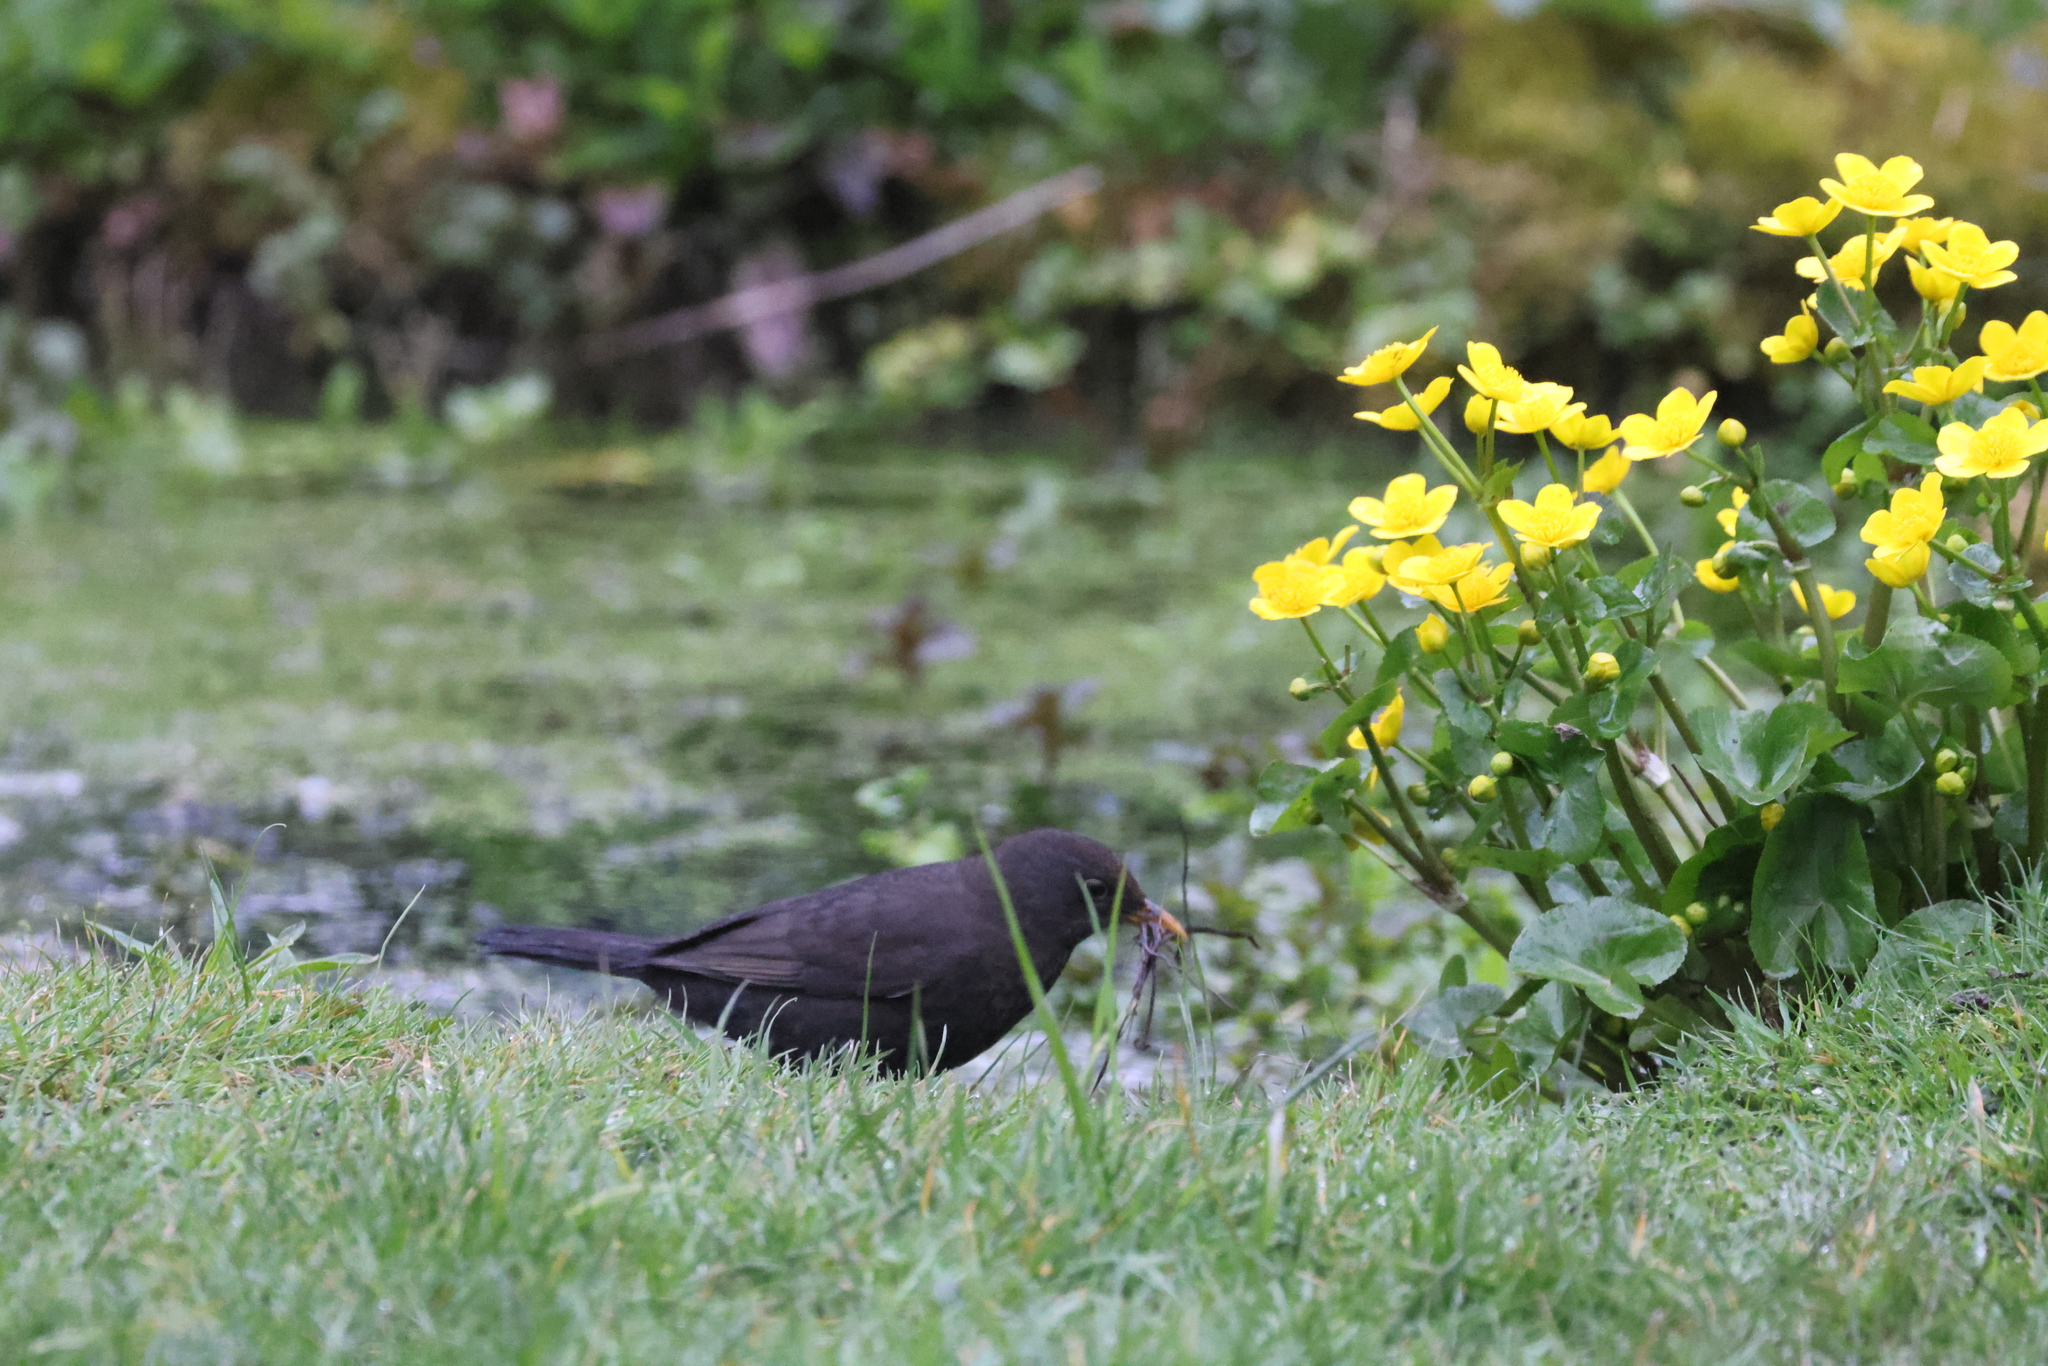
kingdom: Animalia
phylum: Chordata
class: Aves
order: Passeriformes
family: Turdidae
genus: Turdus
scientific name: Turdus merula
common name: Common blackbird
